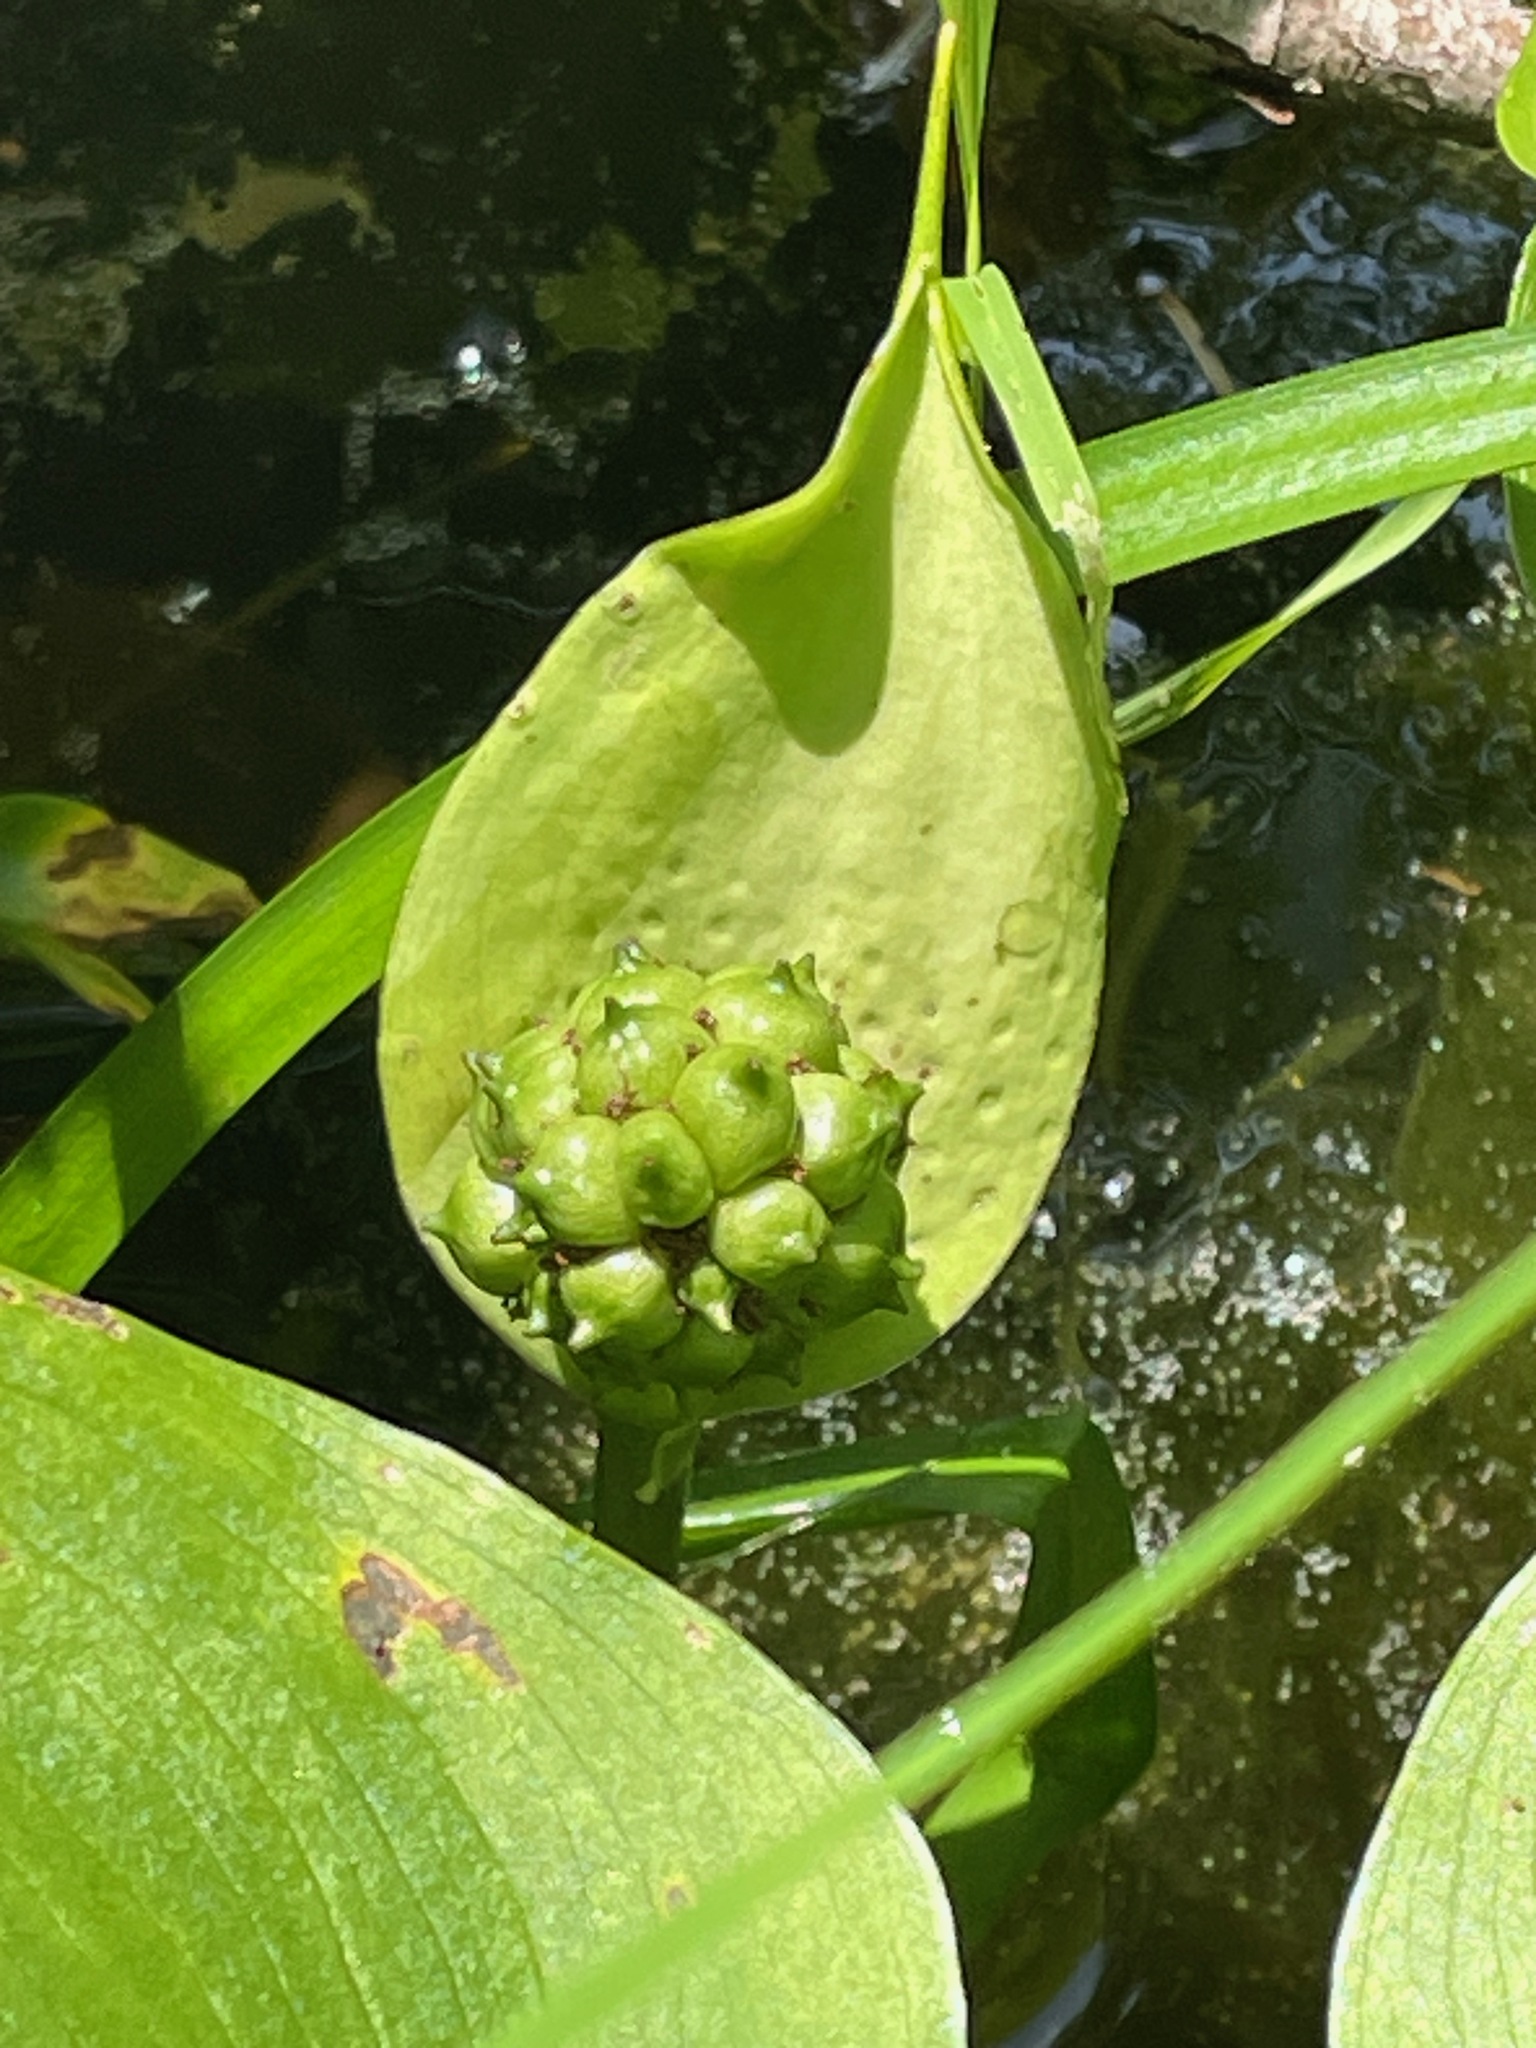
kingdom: Plantae
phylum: Tracheophyta
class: Liliopsida
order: Alismatales
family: Araceae
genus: Calla
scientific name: Calla palustris
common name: Bog arum
